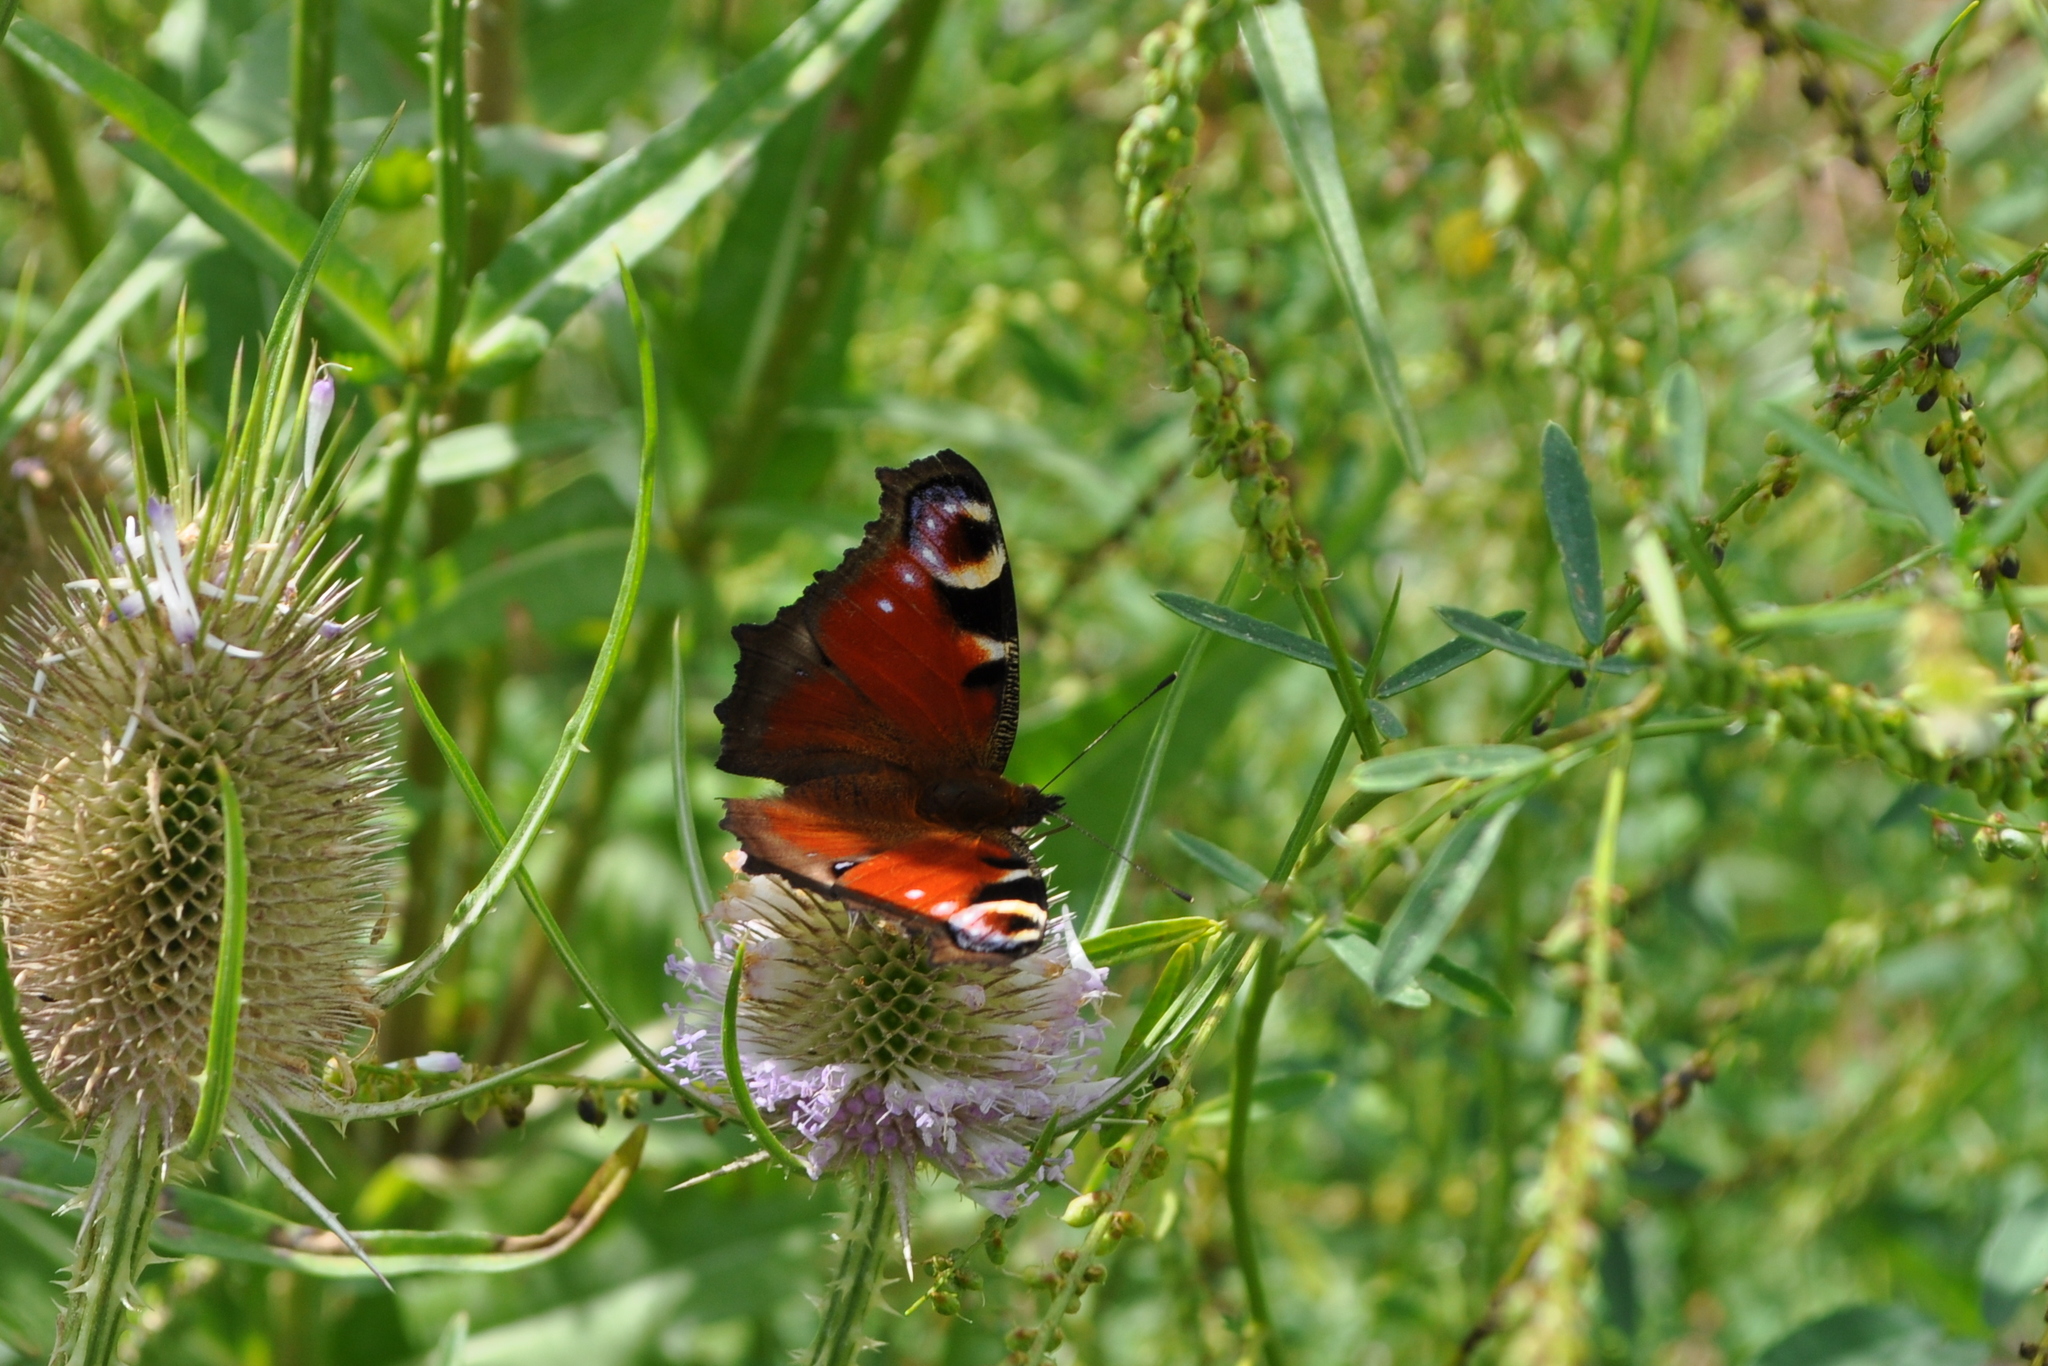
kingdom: Animalia
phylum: Arthropoda
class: Insecta
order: Lepidoptera
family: Nymphalidae
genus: Aglais
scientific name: Aglais io
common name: Peacock
